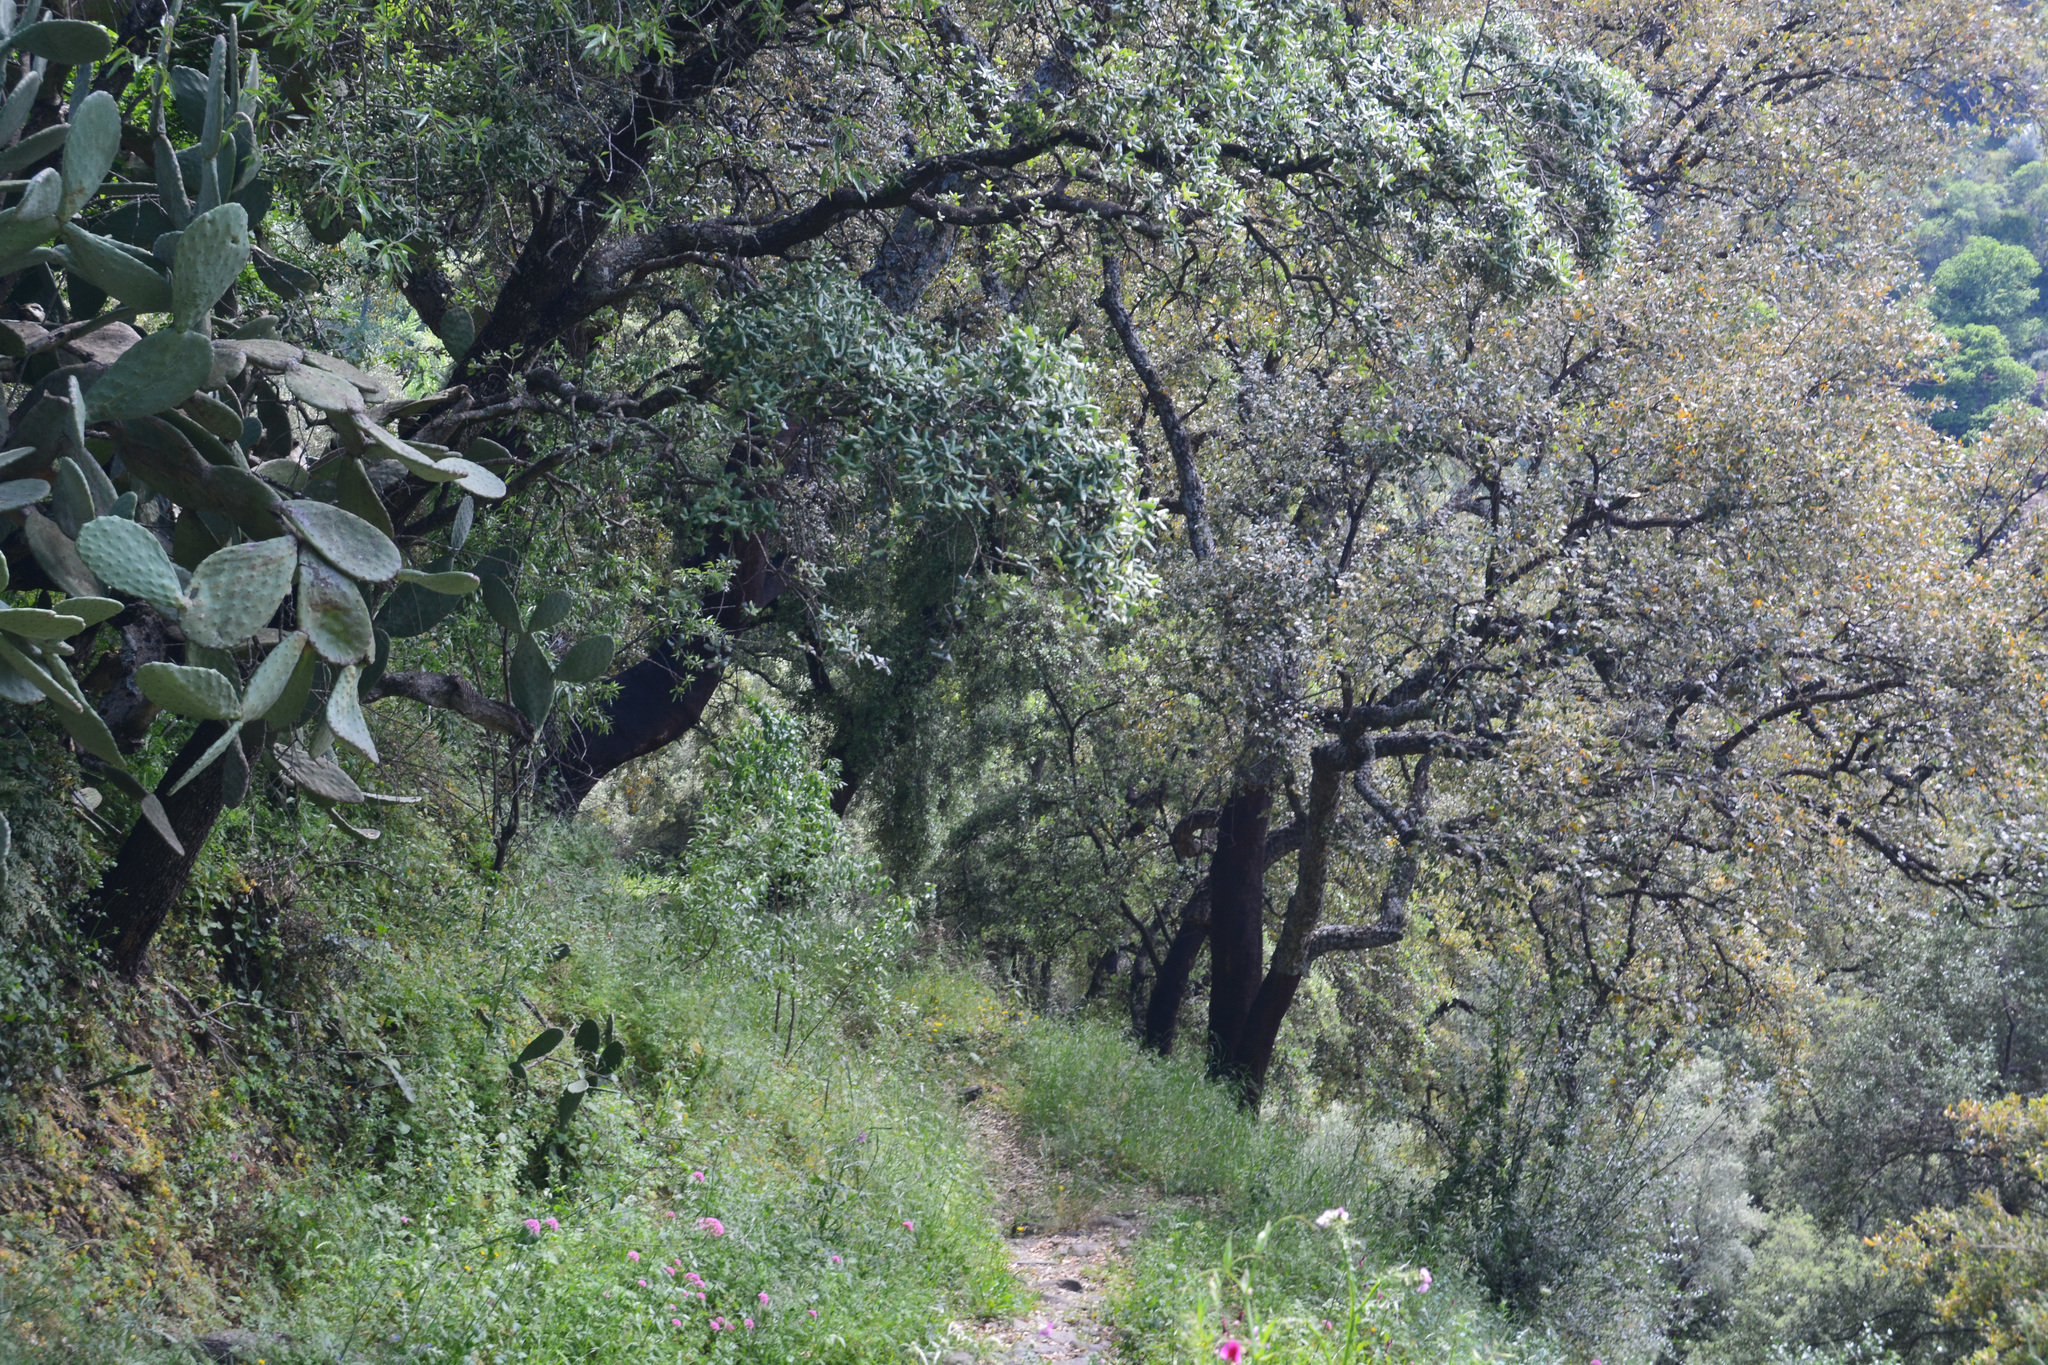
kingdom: Plantae
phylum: Tracheophyta
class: Magnoliopsida
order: Fagales
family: Fagaceae
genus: Quercus
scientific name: Quercus suber
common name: Cork oak
